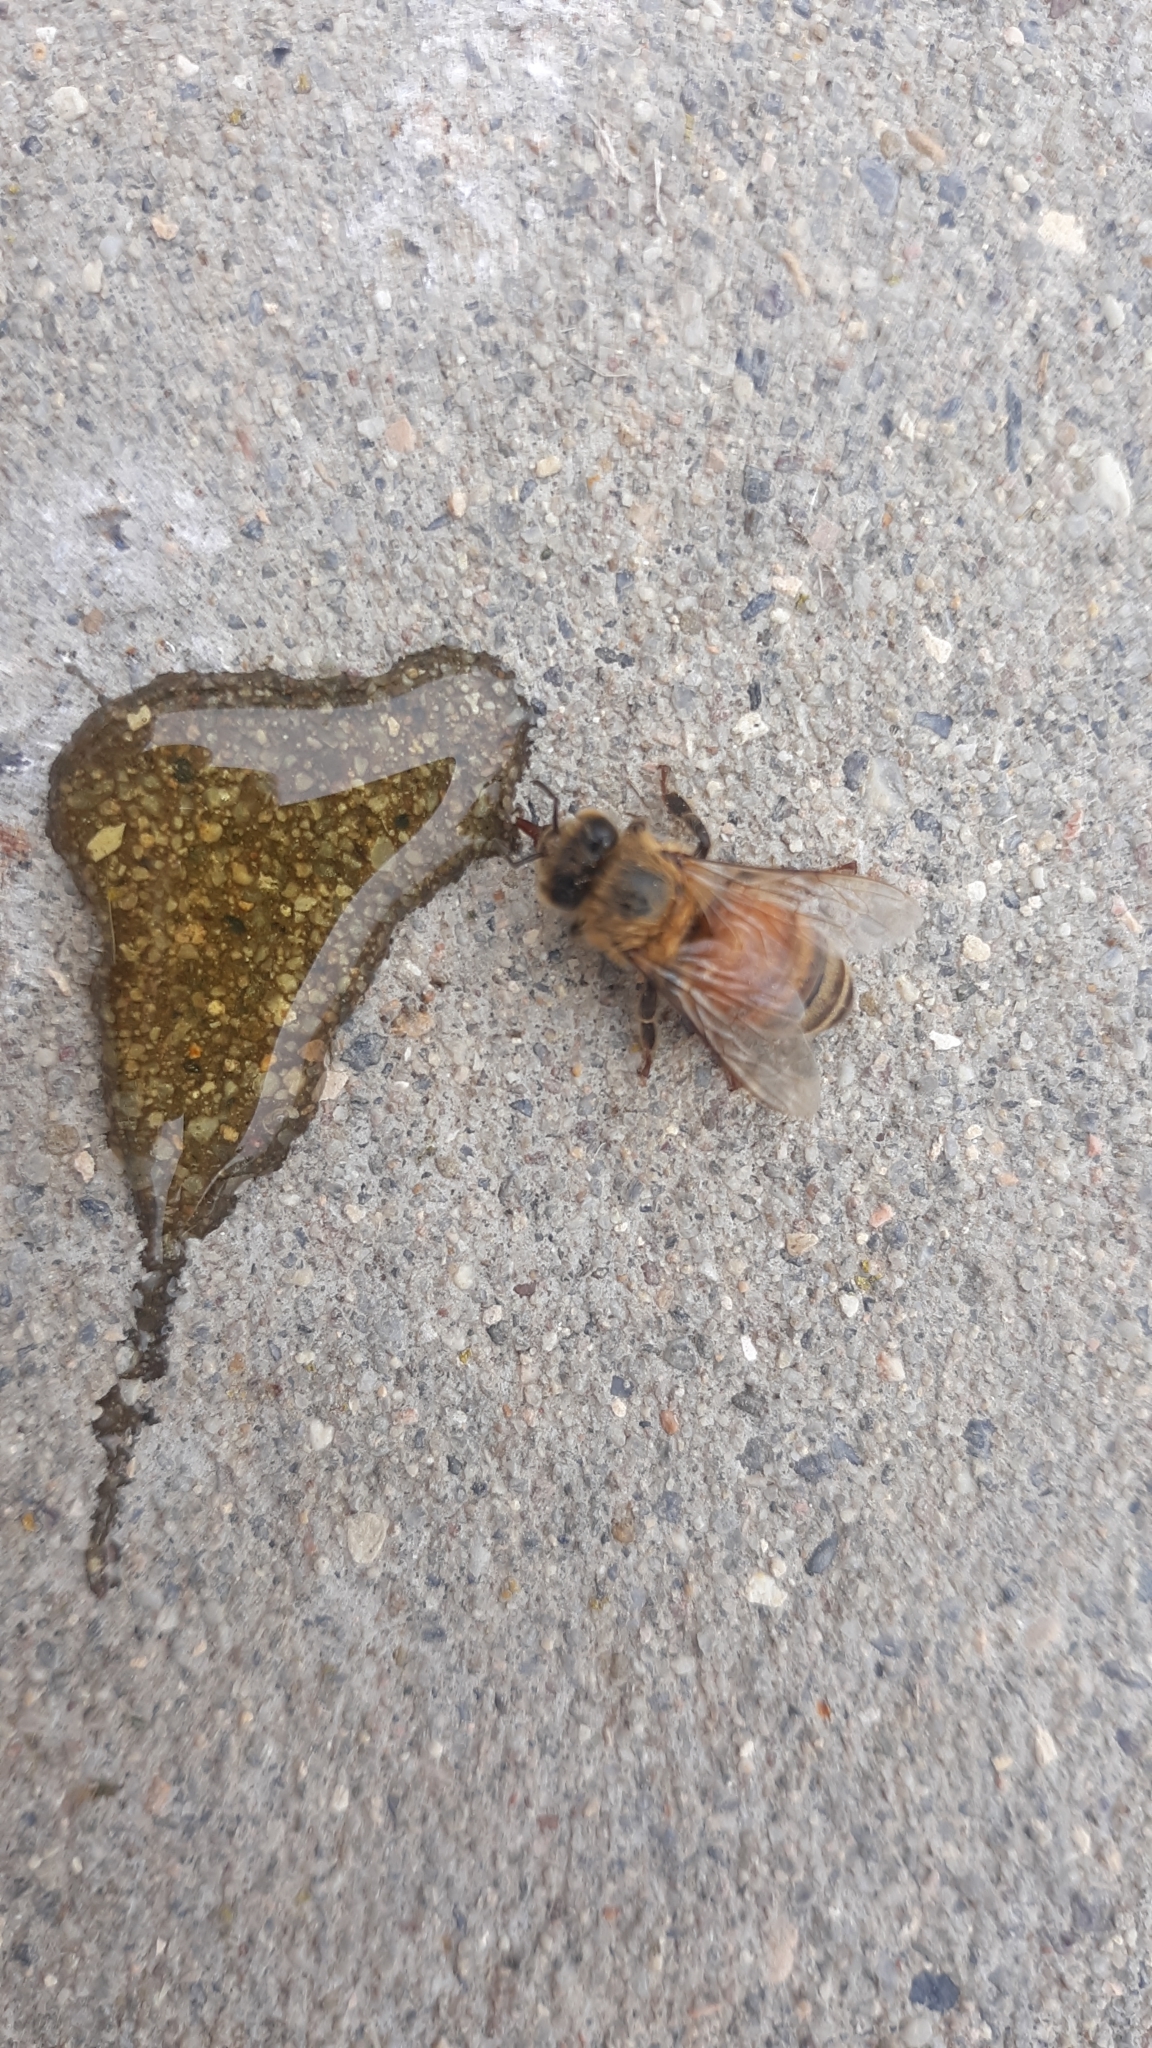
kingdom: Animalia
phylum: Arthropoda
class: Insecta
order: Hymenoptera
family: Apidae
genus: Apis
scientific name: Apis mellifera
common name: Honey bee
